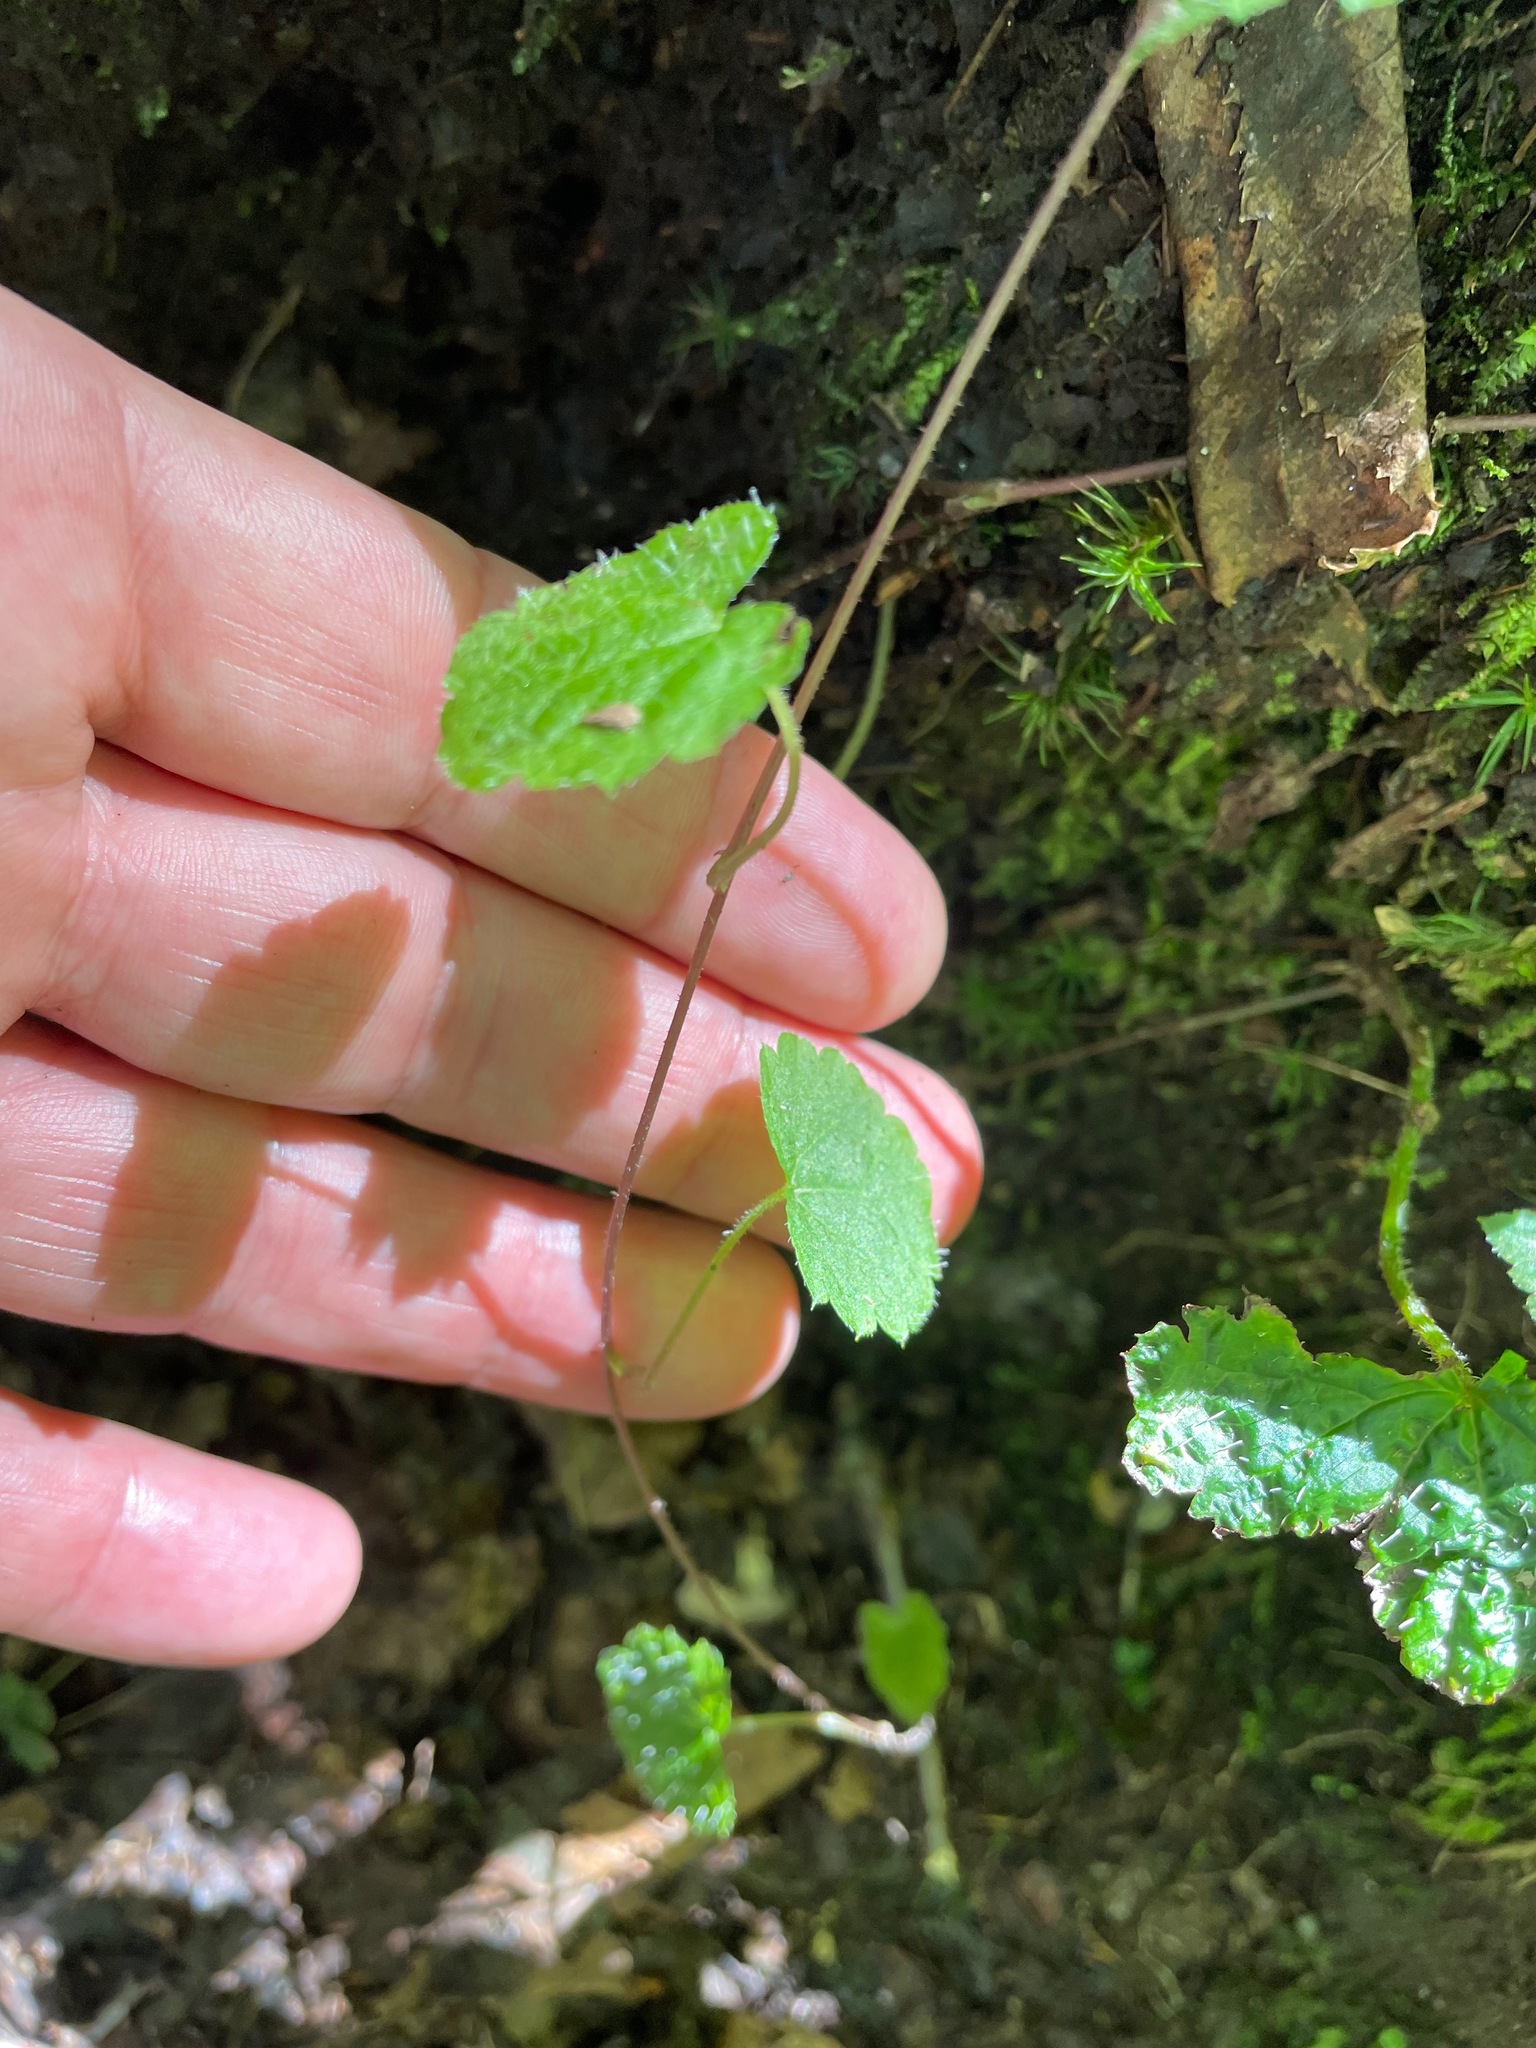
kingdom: Plantae
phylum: Tracheophyta
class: Magnoliopsida
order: Saxifragales
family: Saxifragaceae
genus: Tiarella
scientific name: Tiarella stolonifera
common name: Stoloniferous foamflower
